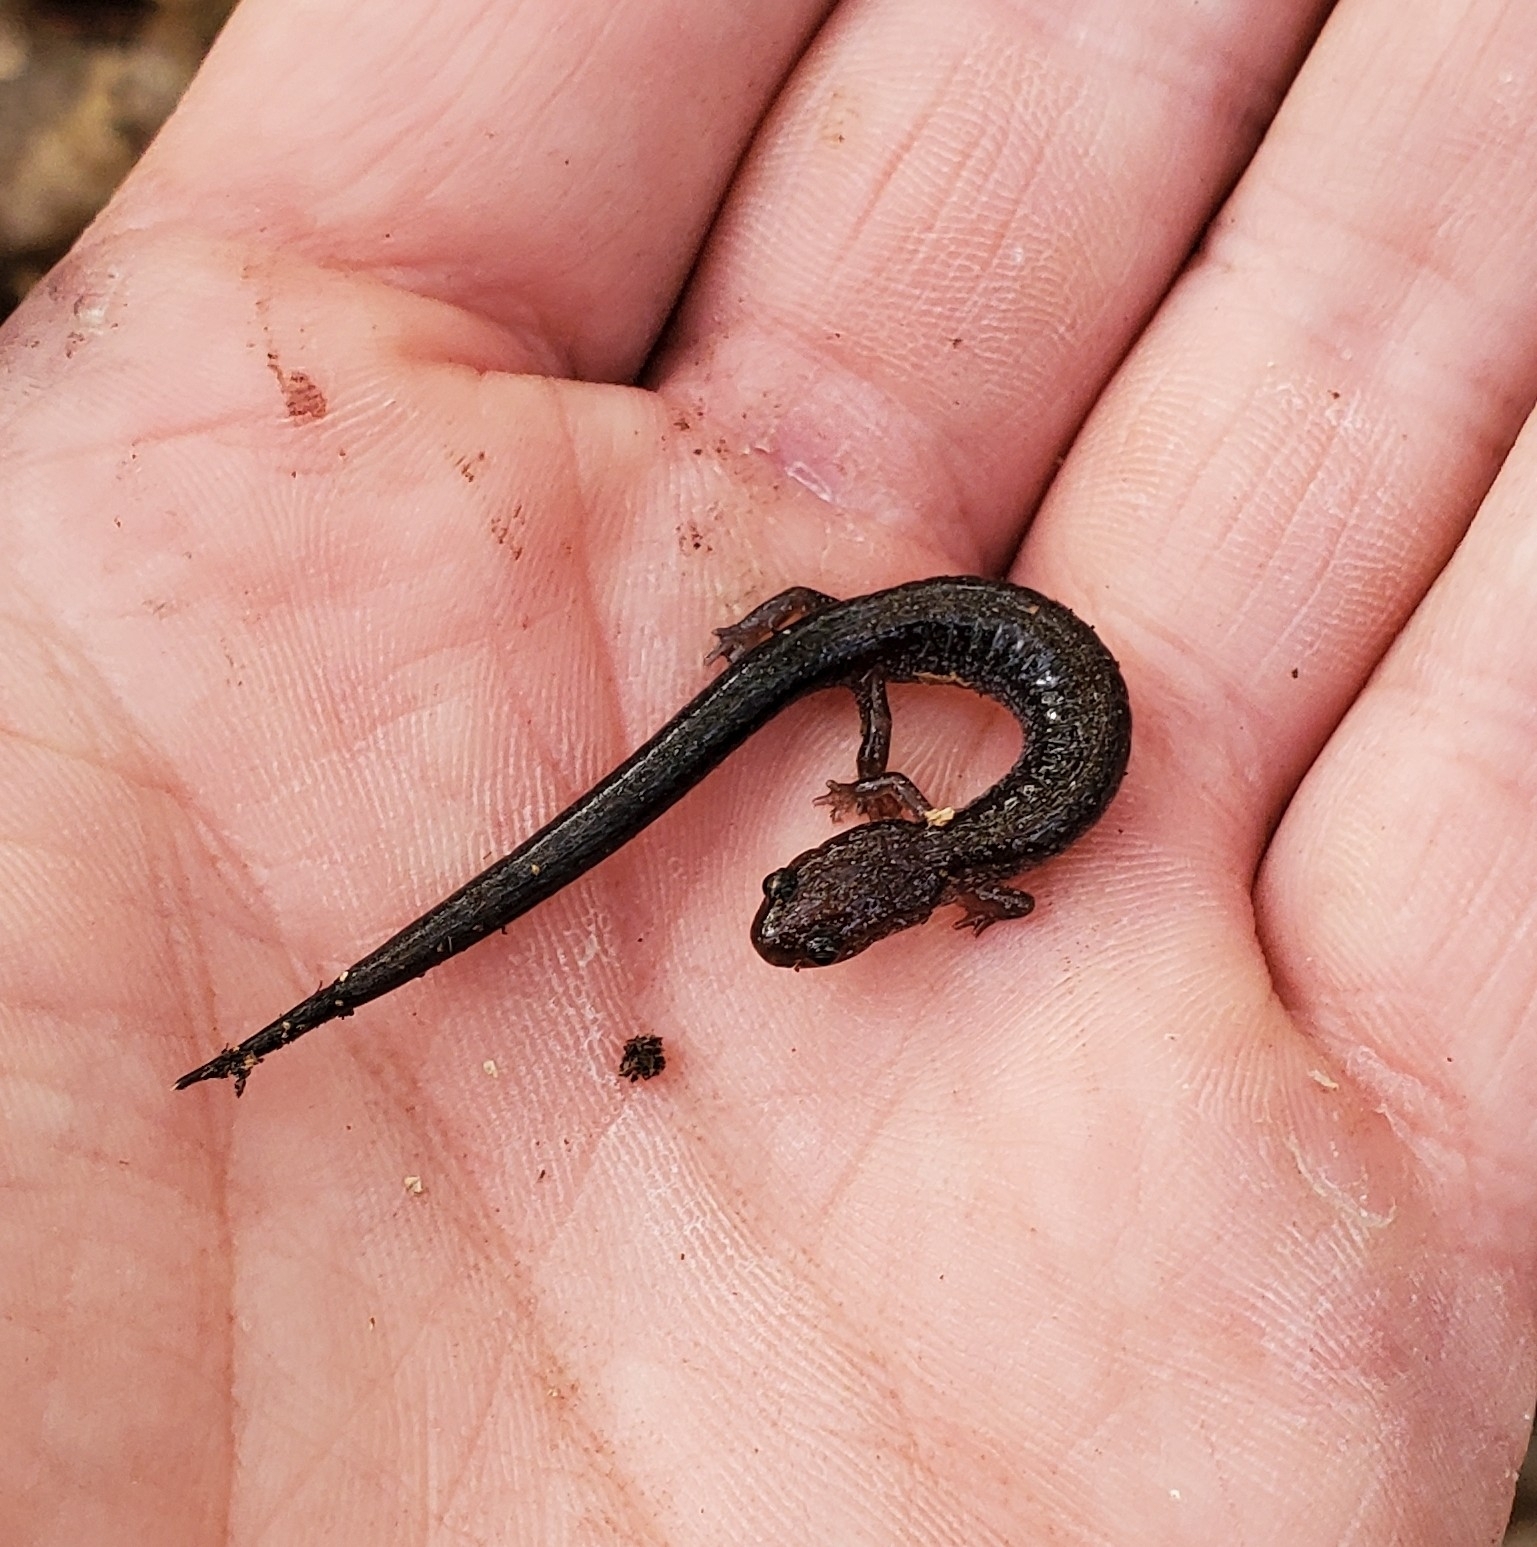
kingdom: Animalia
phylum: Chordata
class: Amphibia
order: Caudata
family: Plethodontidae
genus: Plethodon
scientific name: Plethodon cinereus
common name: Redback salamander
